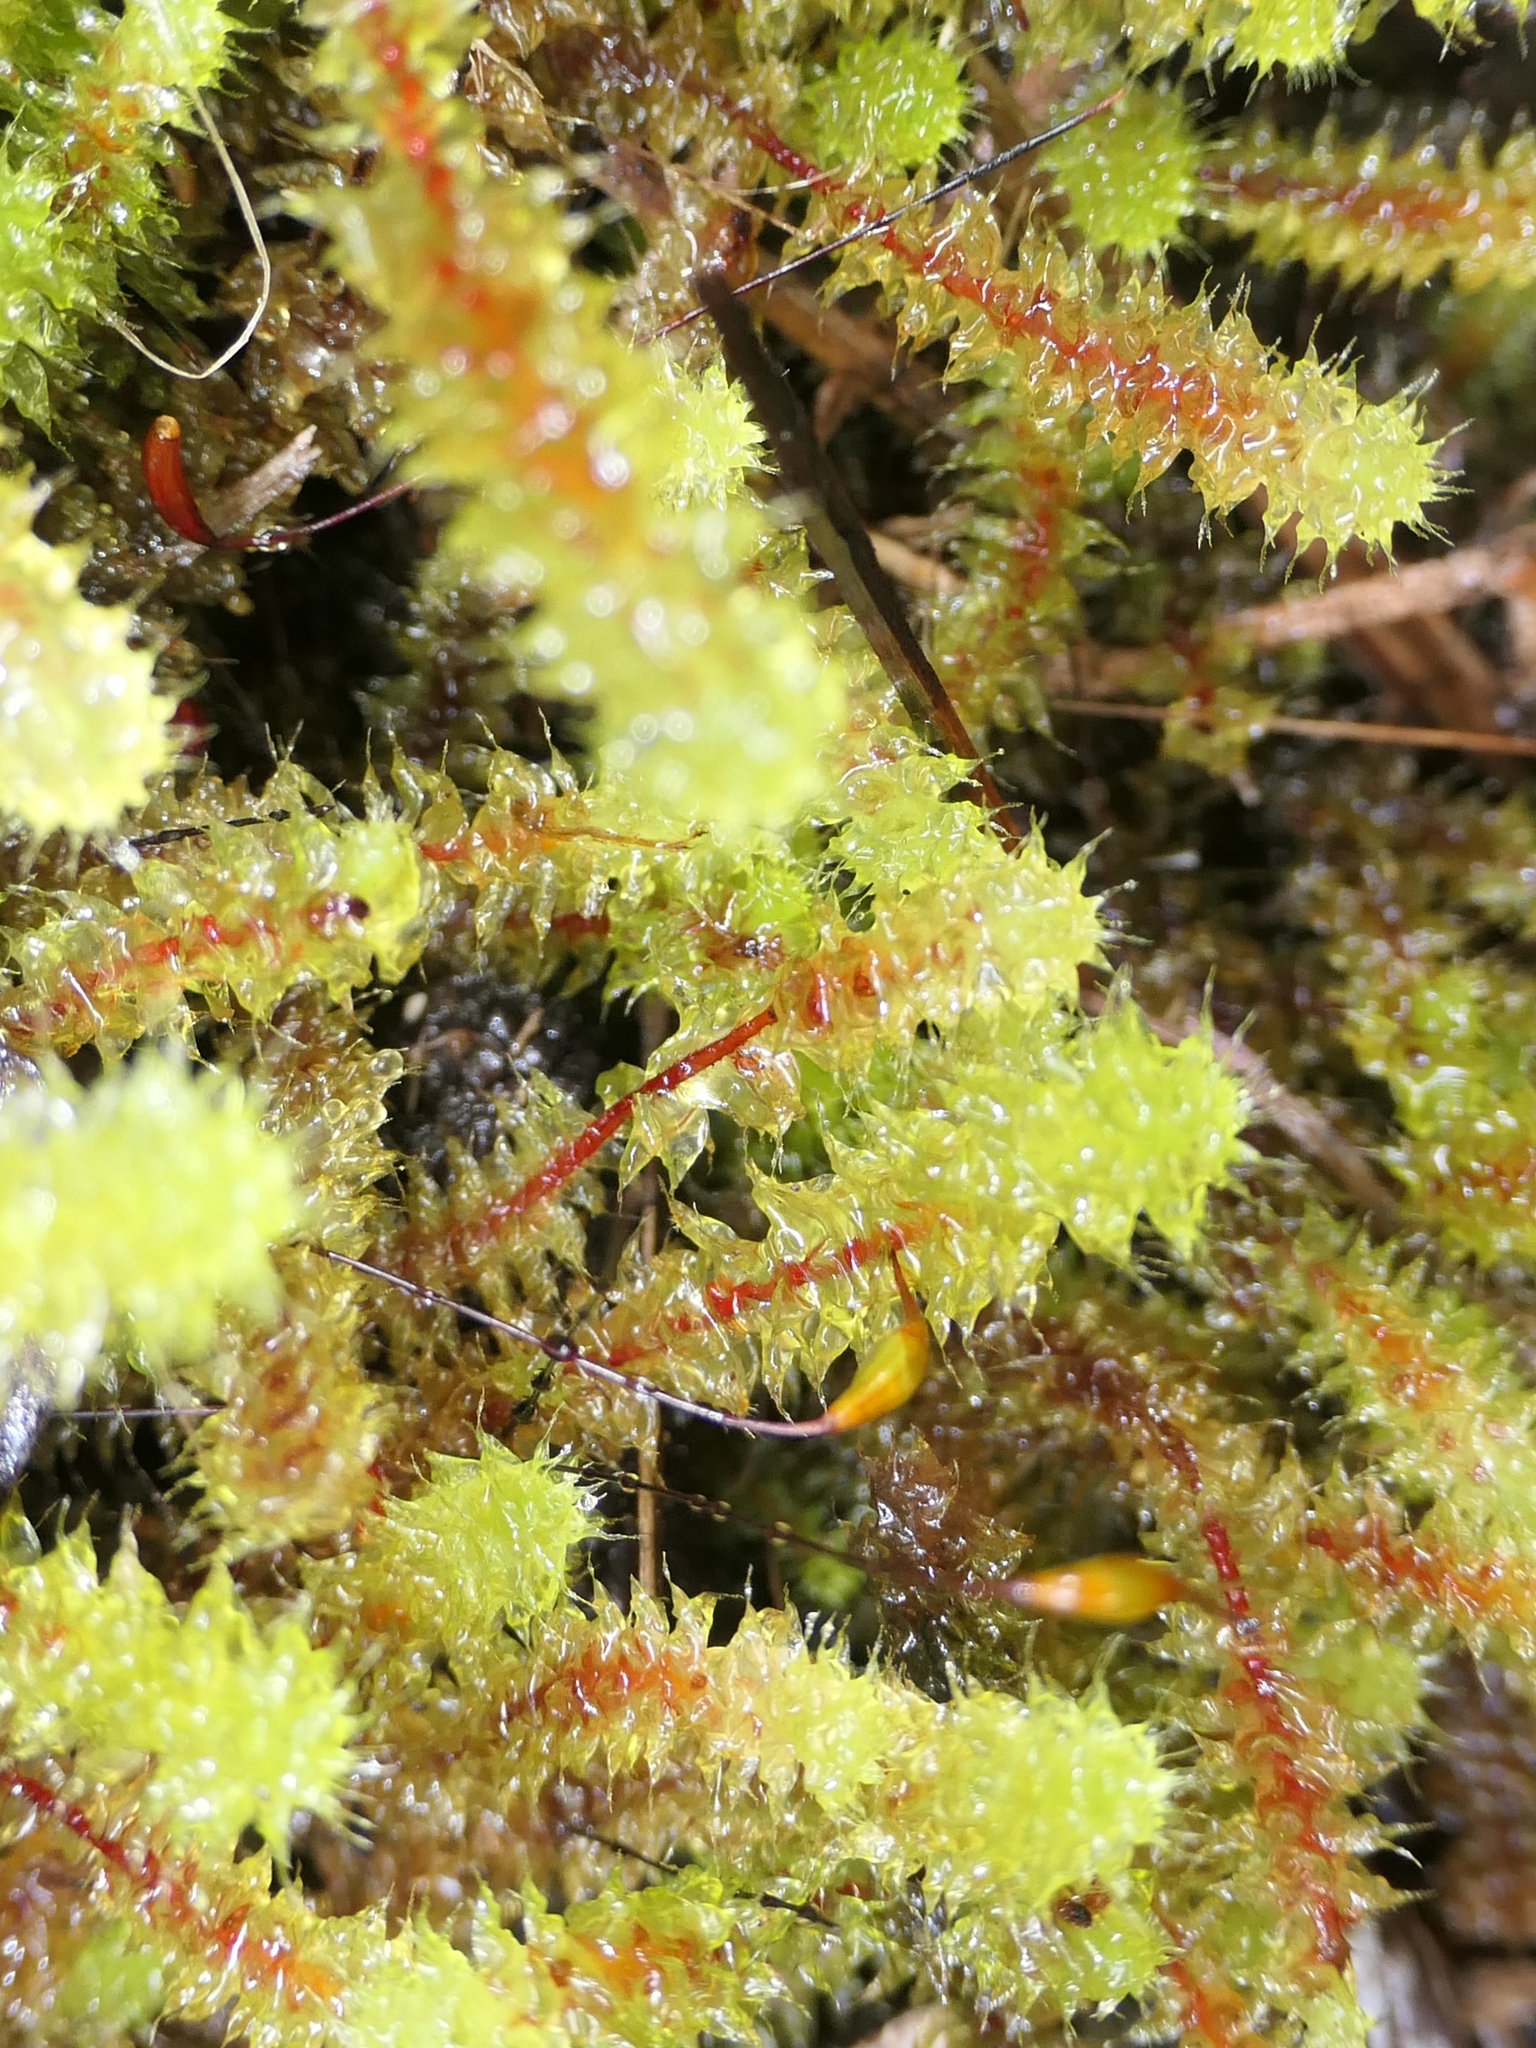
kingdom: Plantae
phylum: Bryophyta
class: Bryopsida
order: Ptychomniales
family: Ptychomniaceae
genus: Ptychomnion
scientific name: Ptychomnion aciculare
